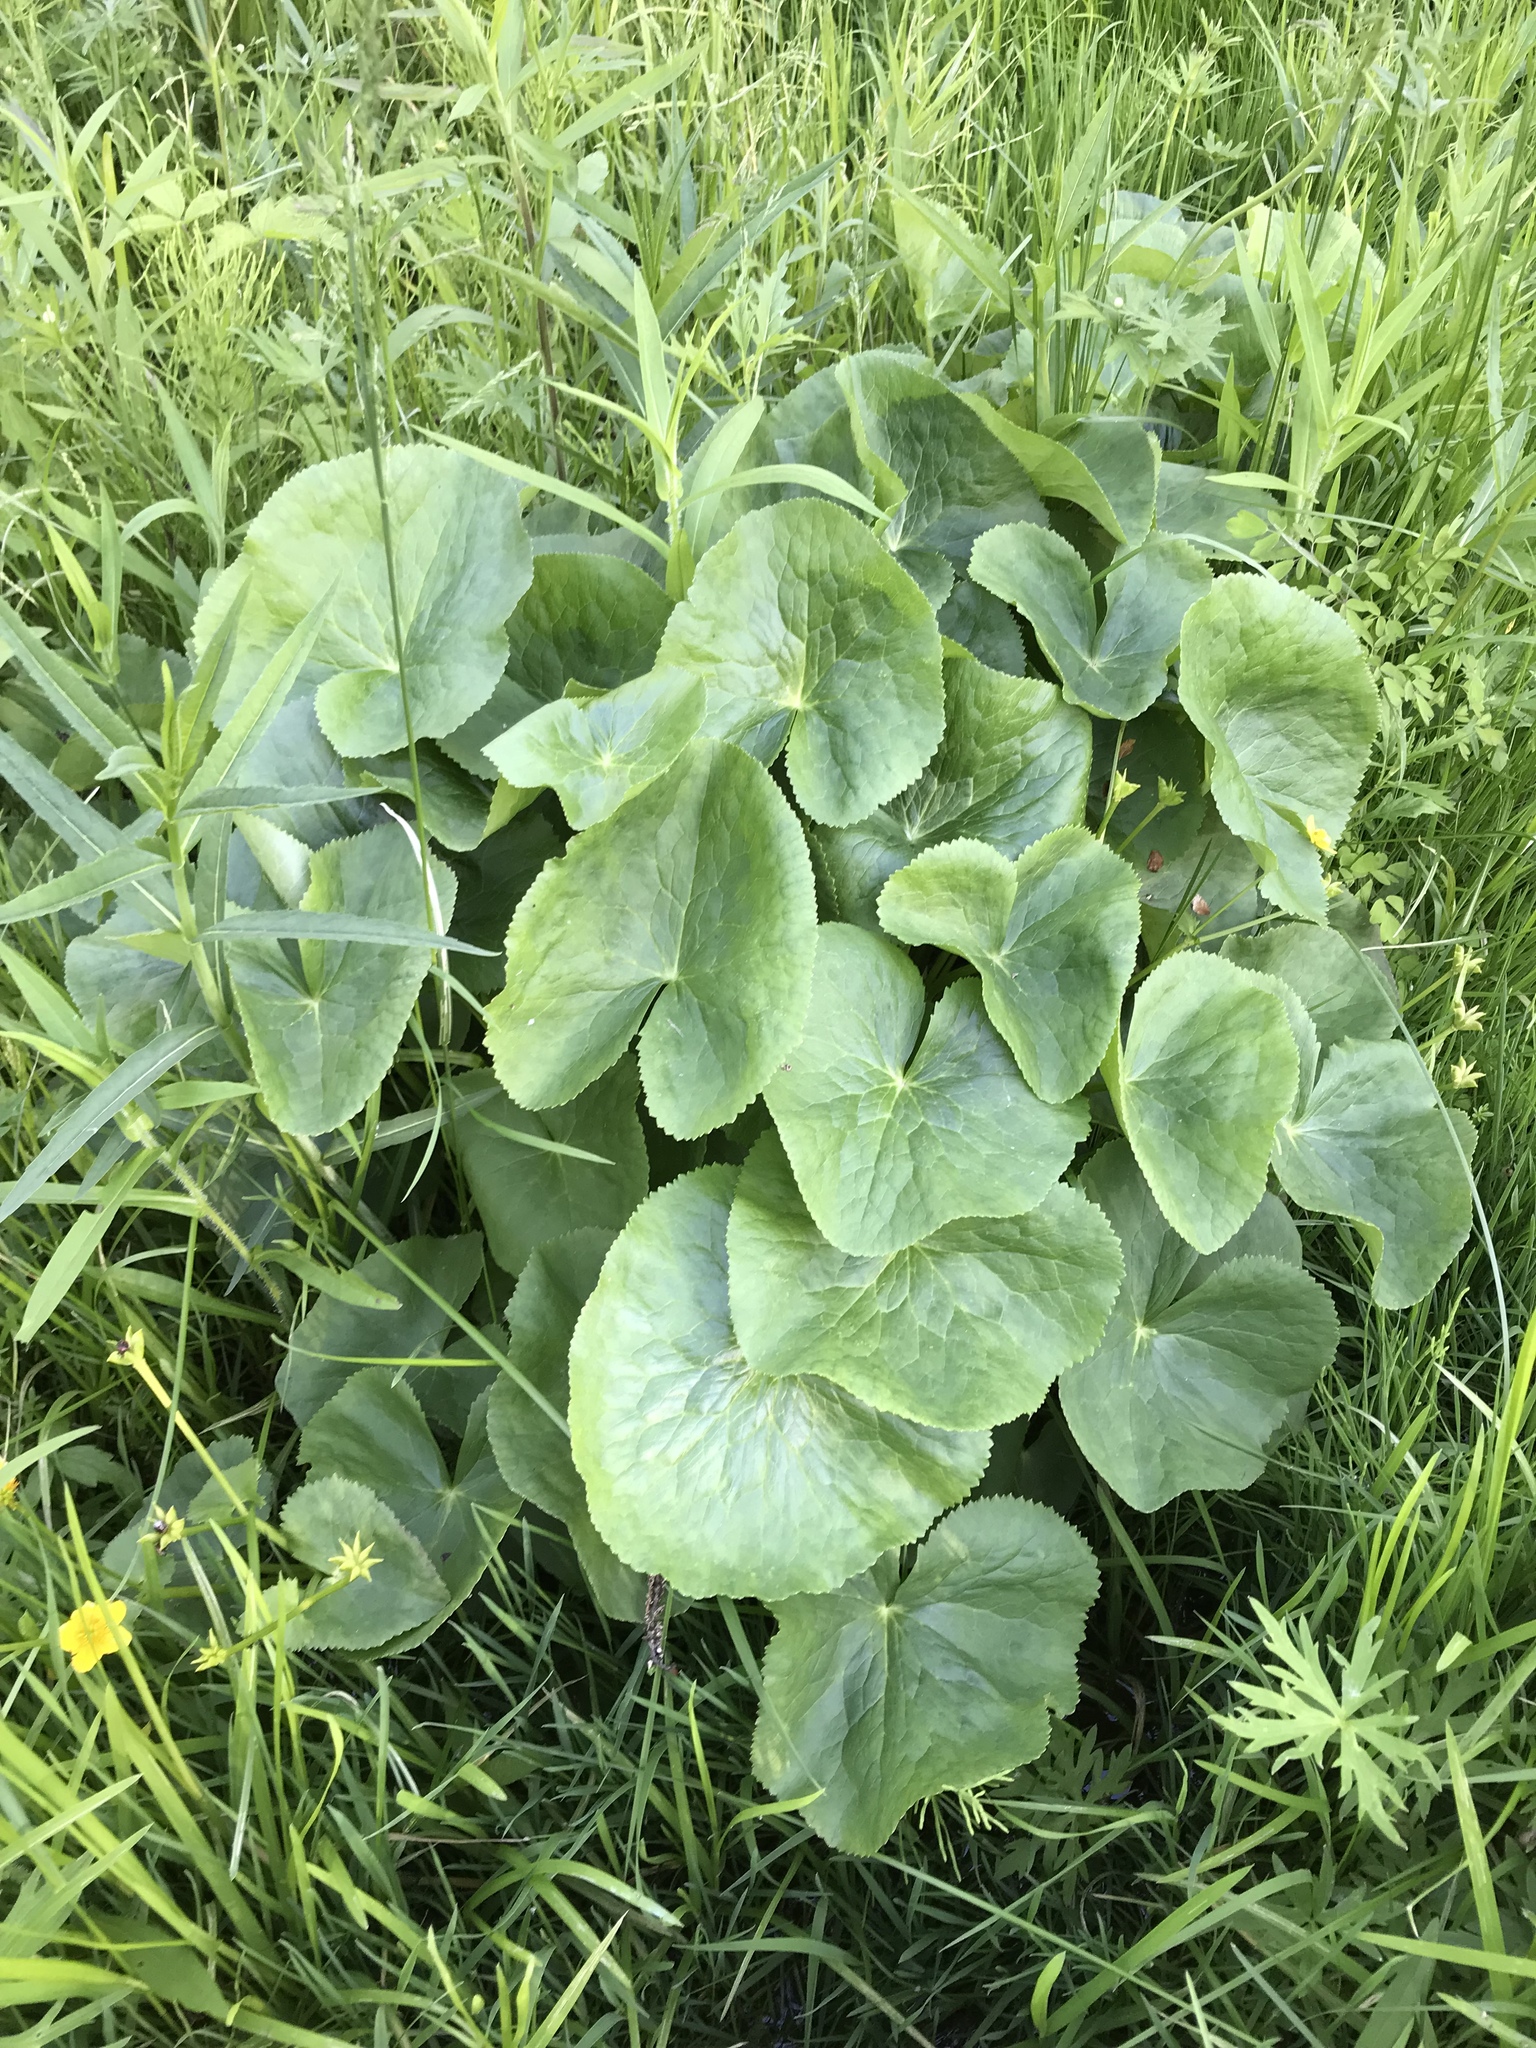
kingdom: Plantae
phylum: Tracheophyta
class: Magnoliopsida
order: Ranunculales
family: Ranunculaceae
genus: Caltha
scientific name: Caltha palustris
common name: Marsh marigold
